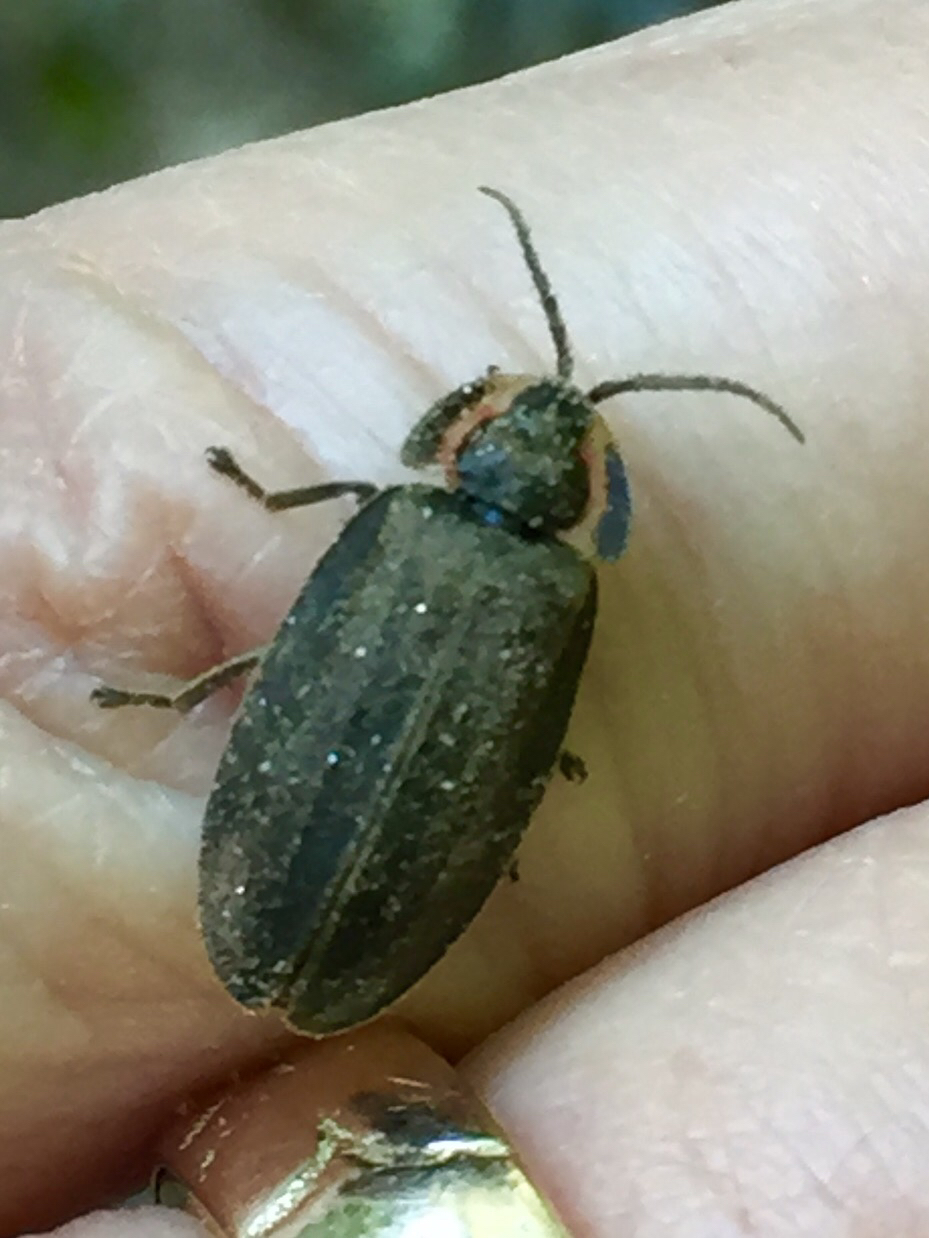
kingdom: Animalia
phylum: Arthropoda
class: Insecta
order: Coleoptera
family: Lampyridae
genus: Photinus
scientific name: Photinus corrusca
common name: Winter firefly
